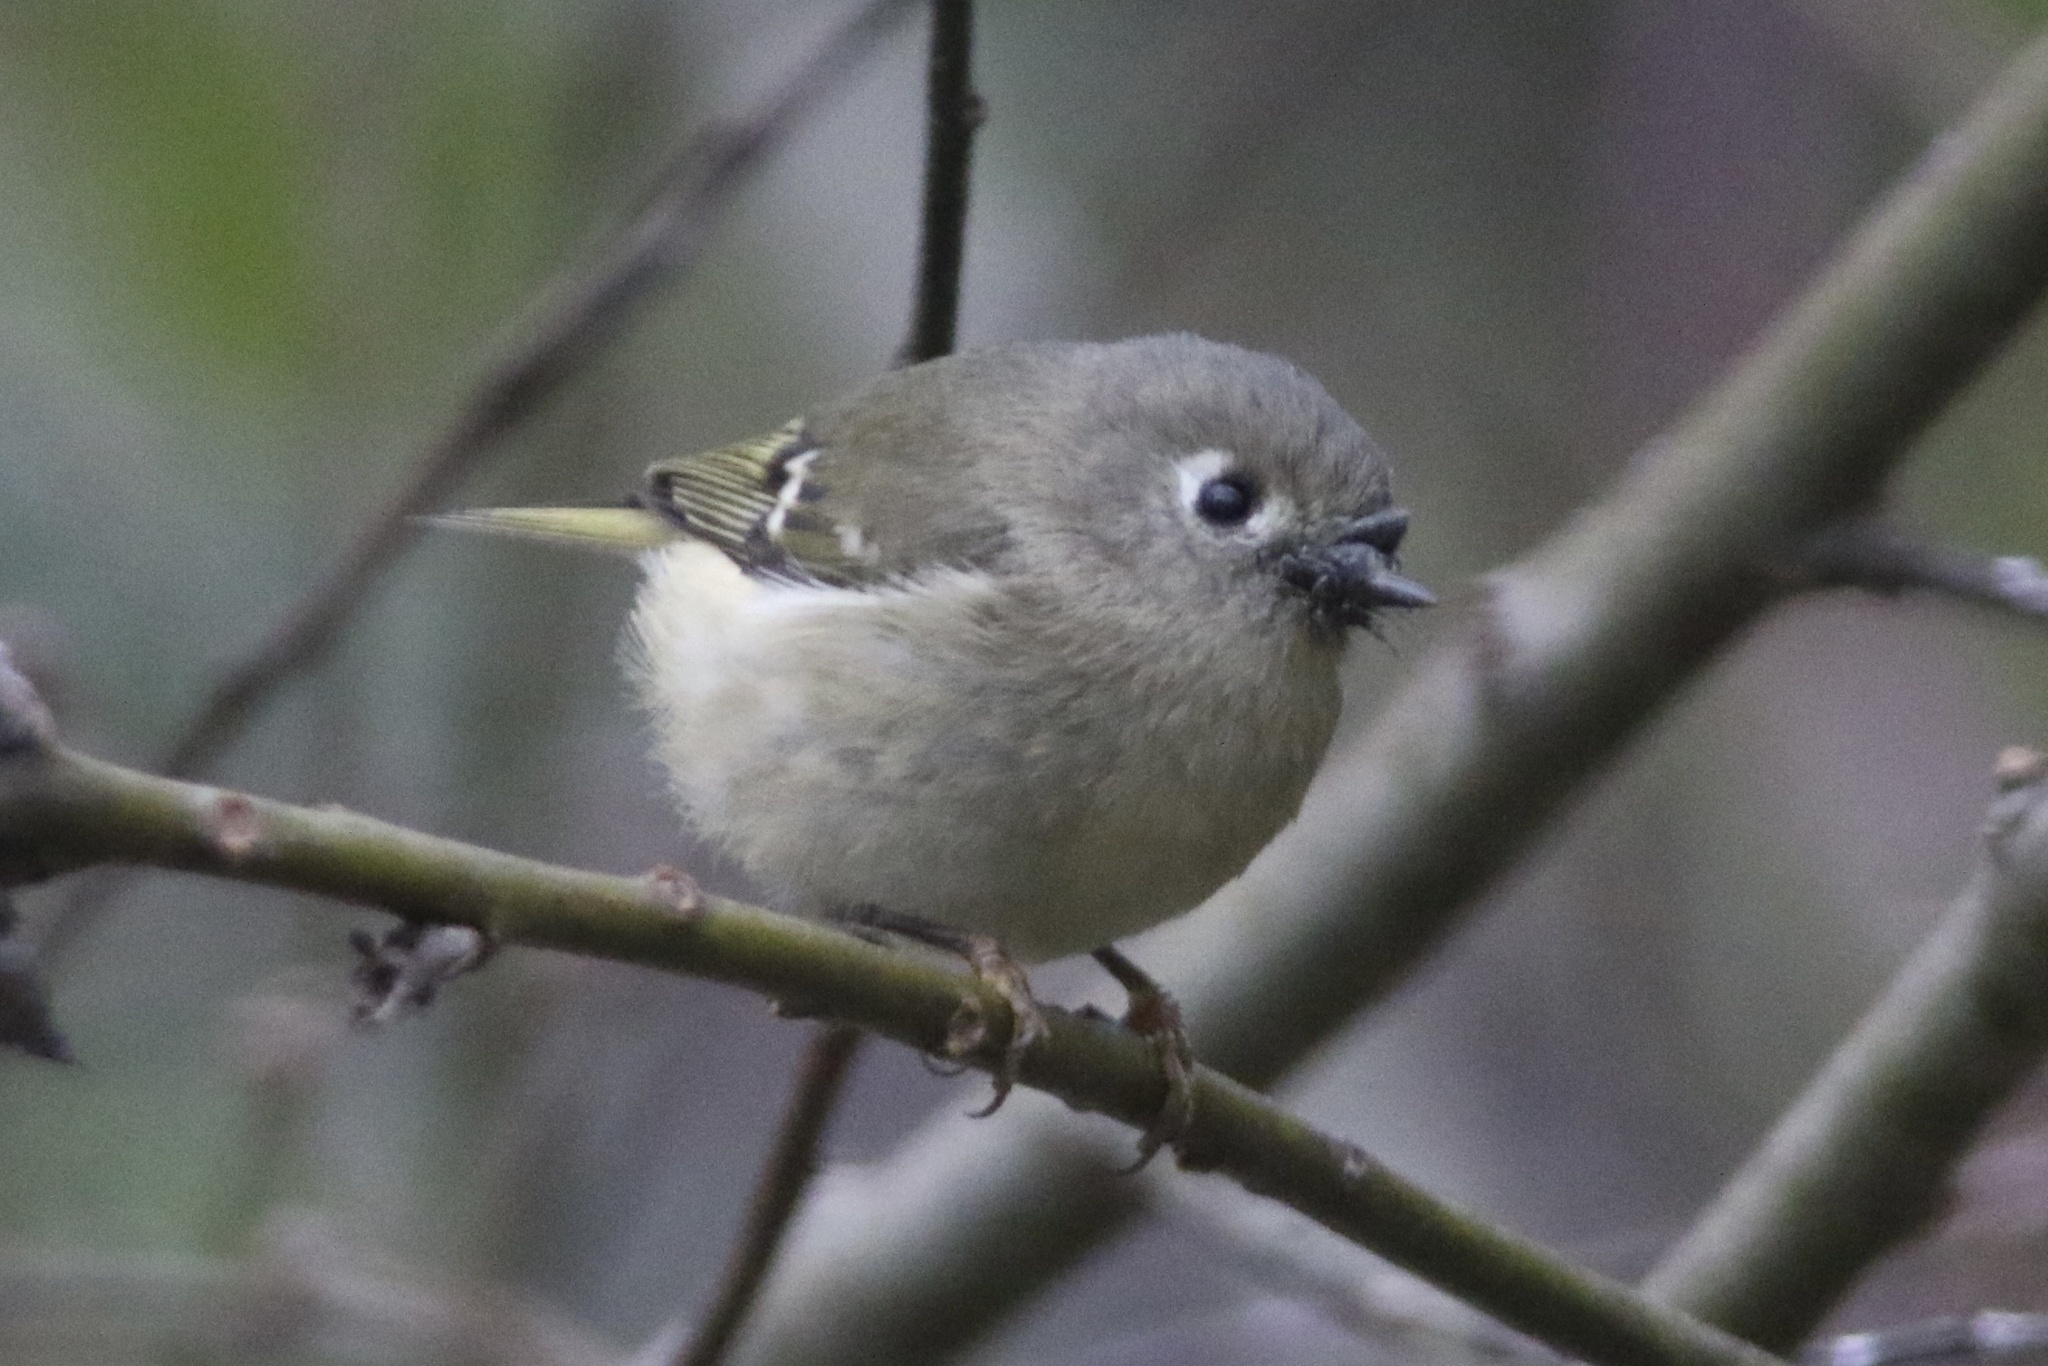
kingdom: Animalia
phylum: Chordata
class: Aves
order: Passeriformes
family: Regulidae
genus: Regulus
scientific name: Regulus calendula
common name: Ruby-crowned kinglet
